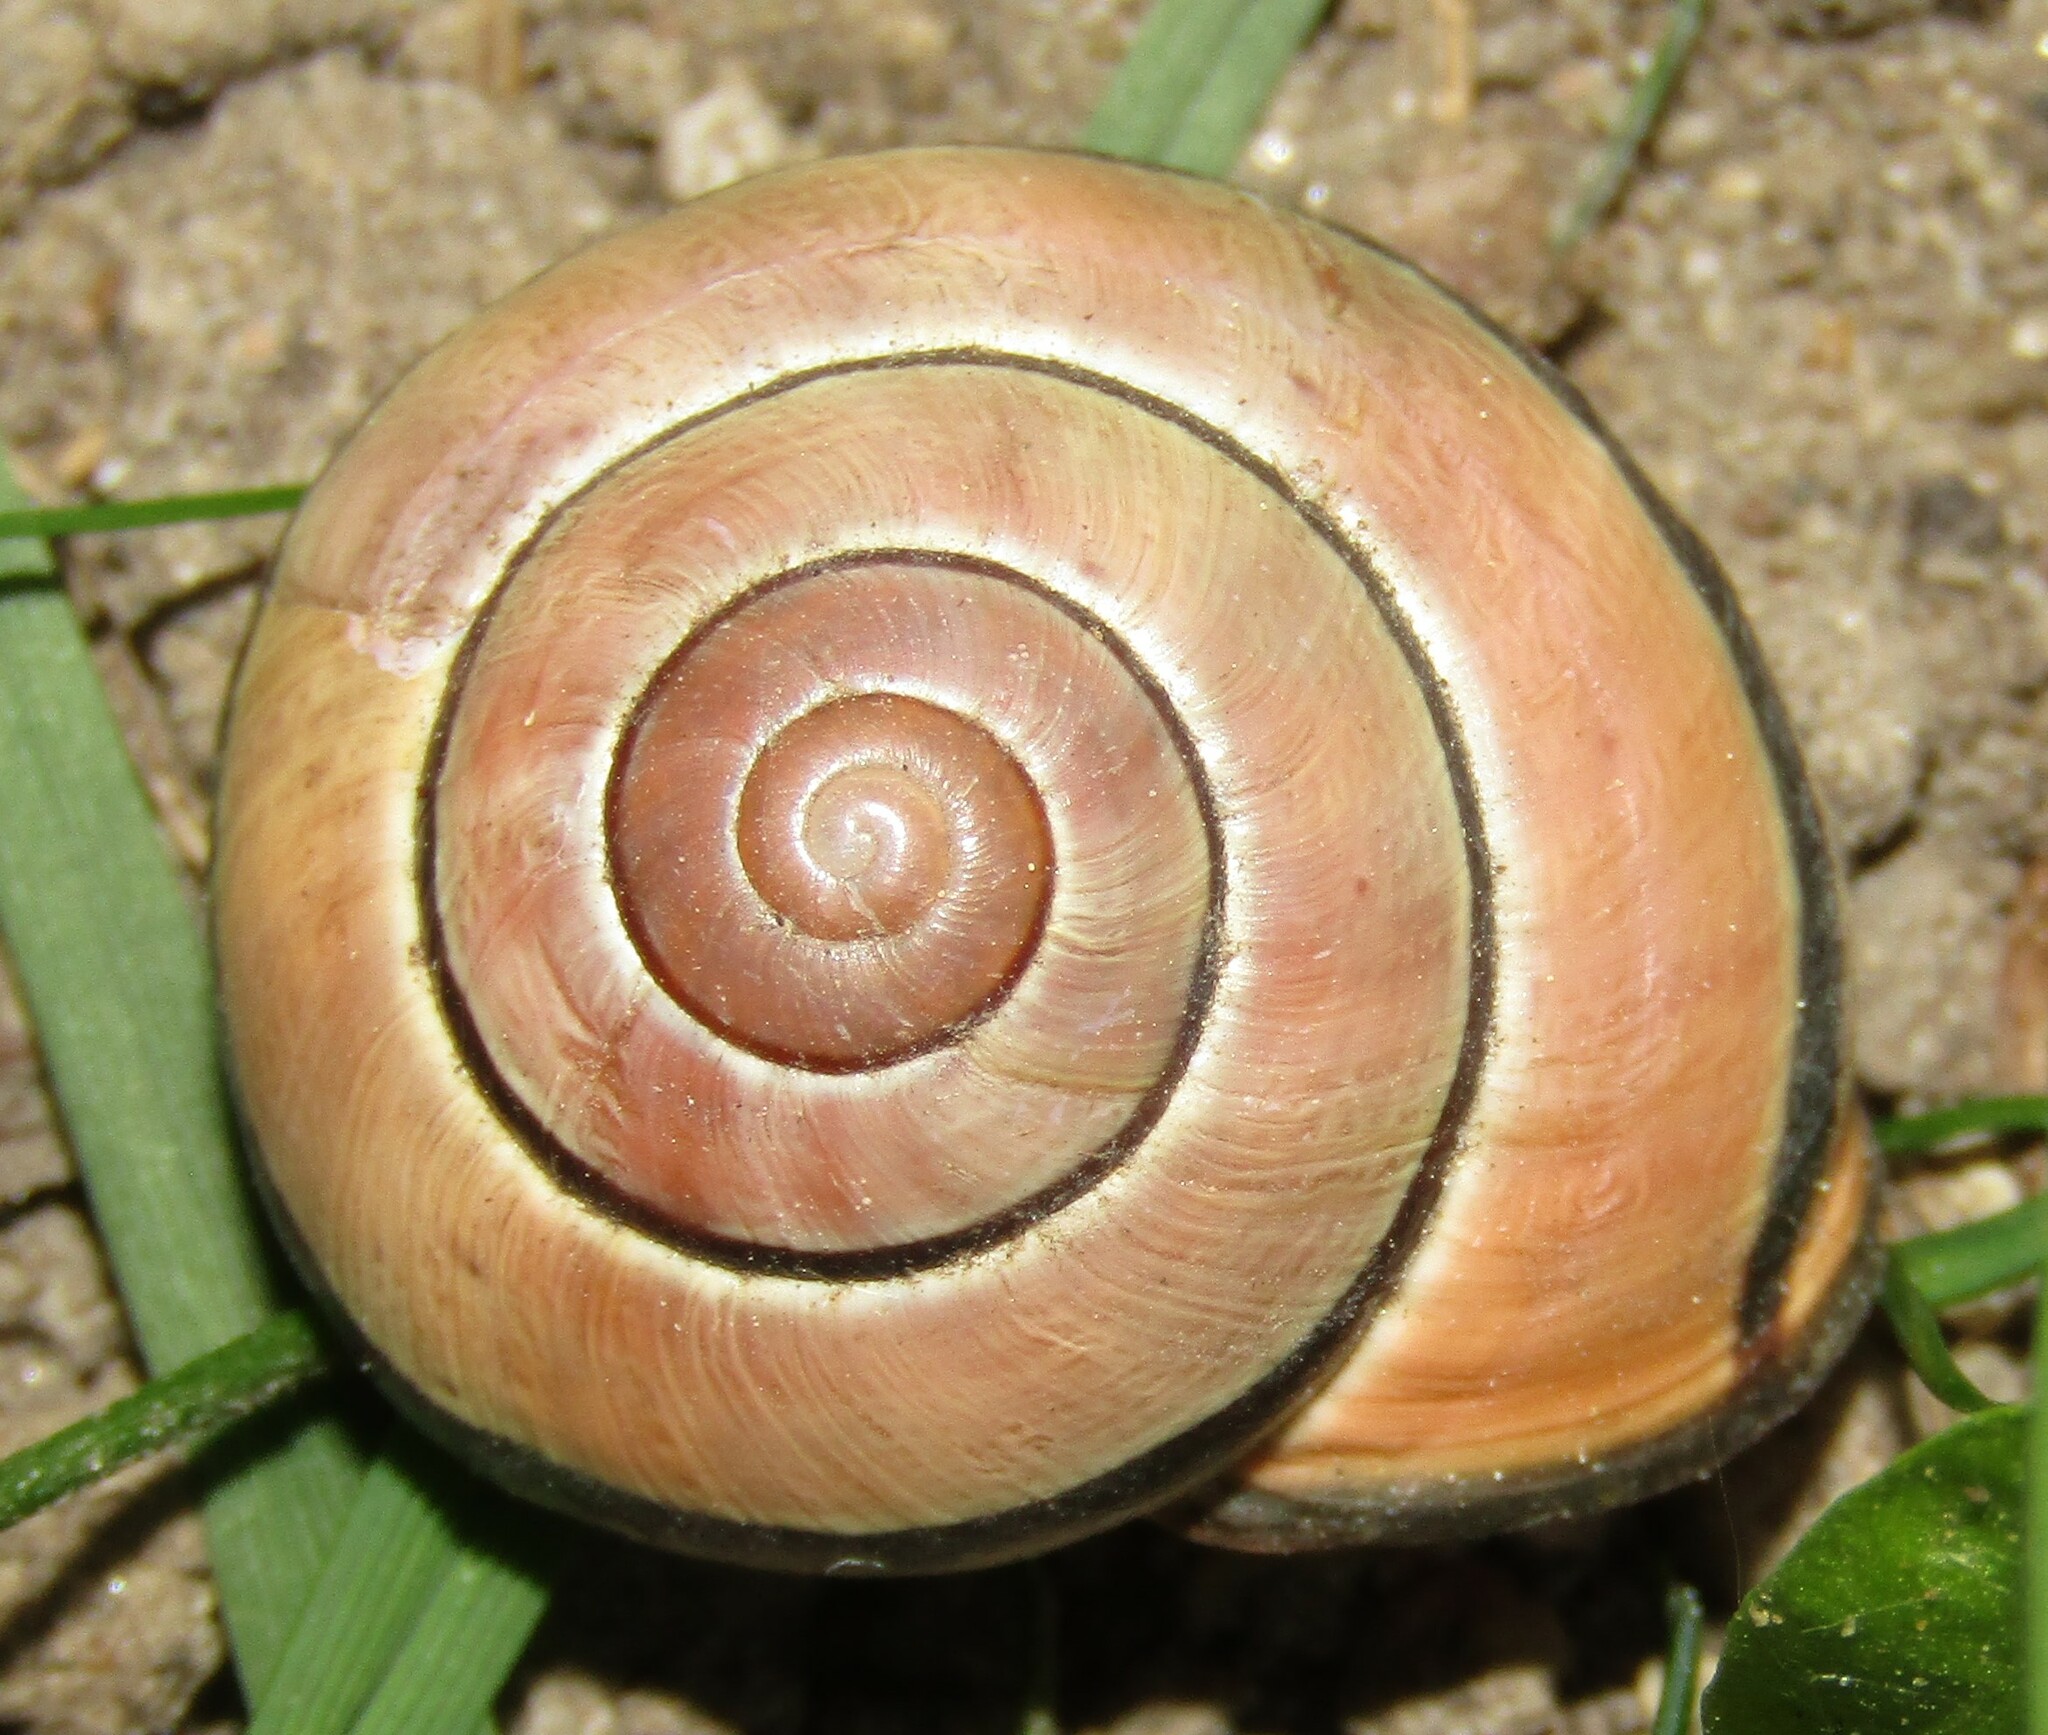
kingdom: Animalia
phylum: Mollusca
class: Gastropoda
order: Stylommatophora
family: Helicidae
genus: Cepaea
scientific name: Cepaea nemoralis
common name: Grovesnail
